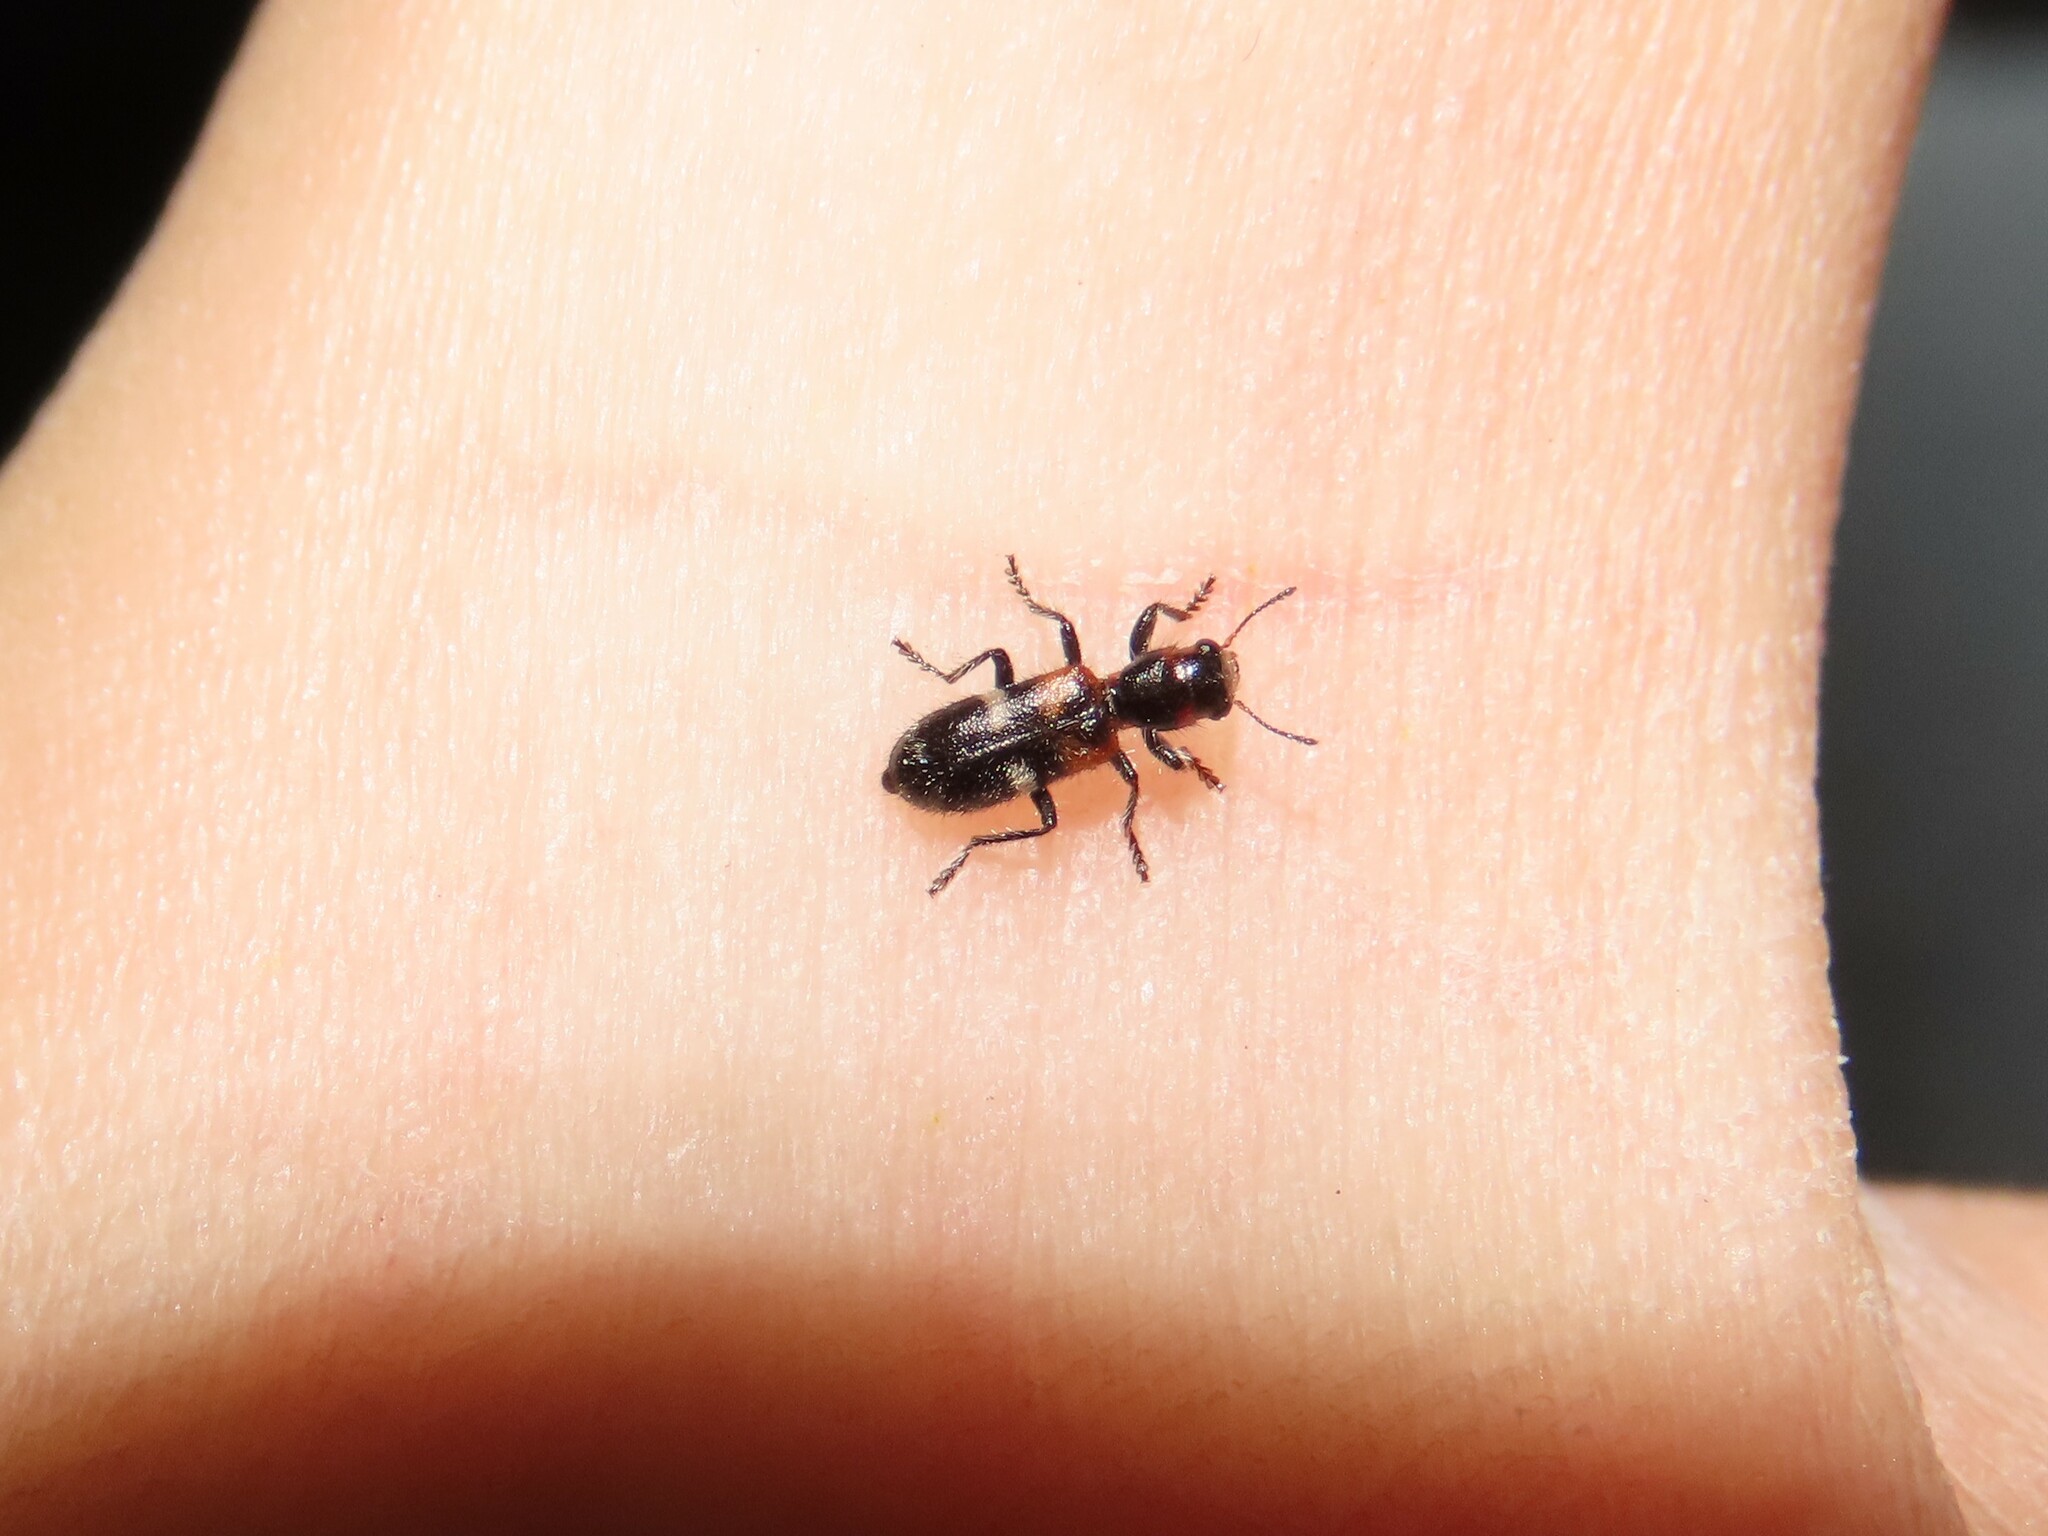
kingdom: Animalia
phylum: Arthropoda
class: Insecta
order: Coleoptera
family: Cleridae
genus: Enoclerus
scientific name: Enoclerus nigrifrons
